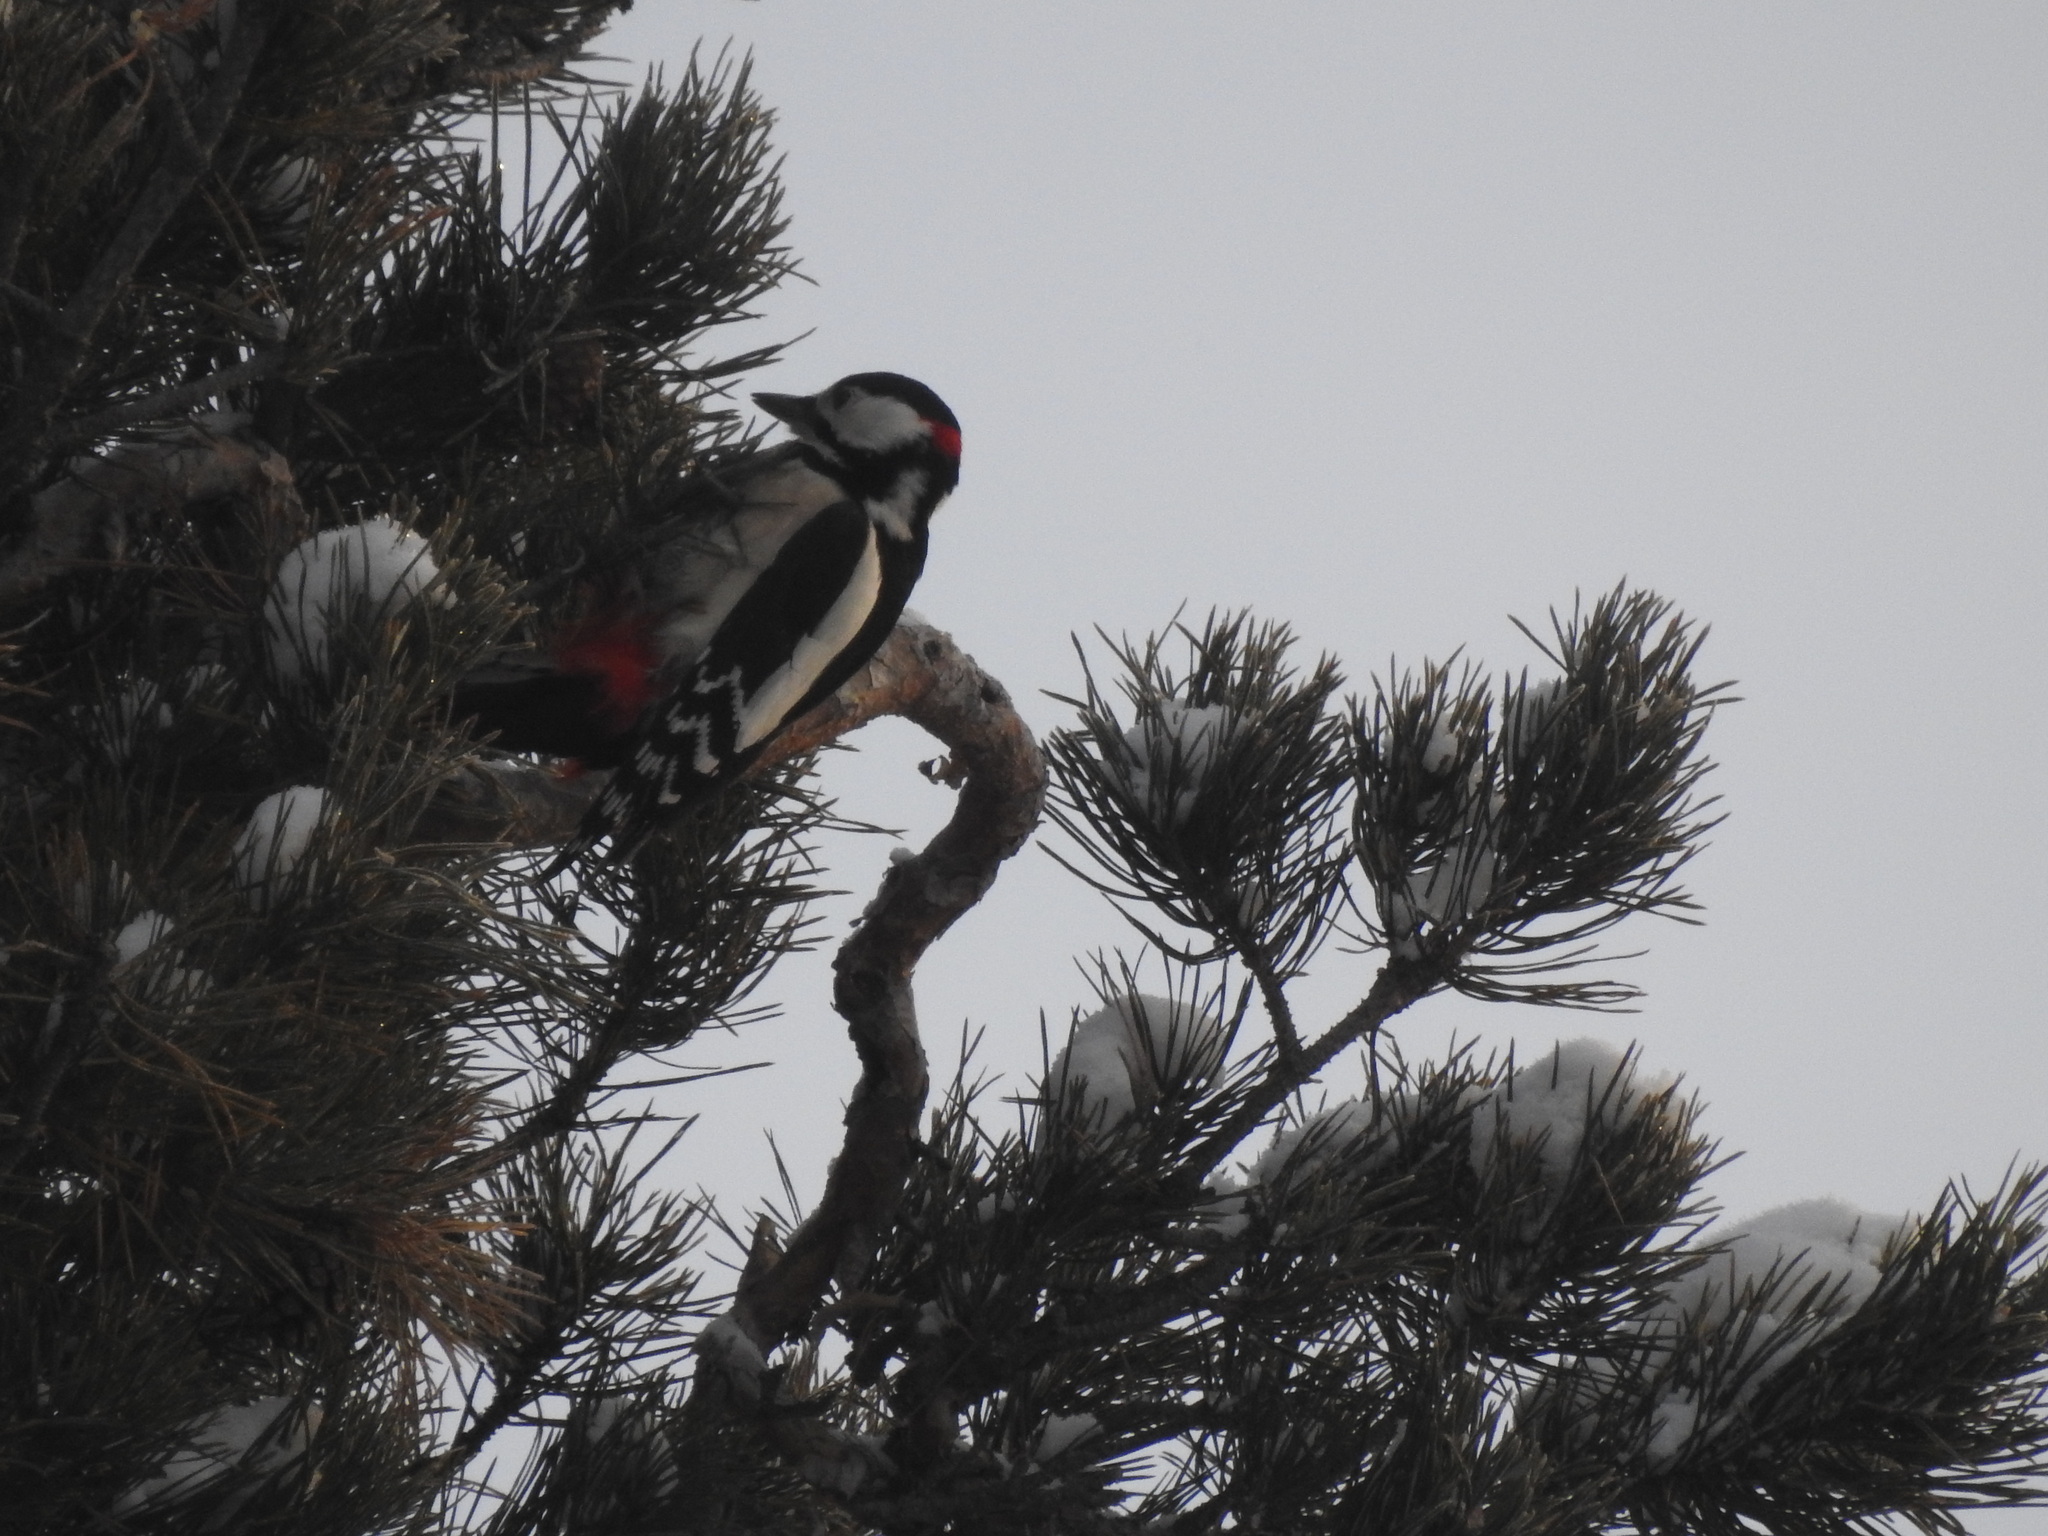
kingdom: Animalia
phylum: Chordata
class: Aves
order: Piciformes
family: Picidae
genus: Dendrocopos
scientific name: Dendrocopos major
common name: Great spotted woodpecker
